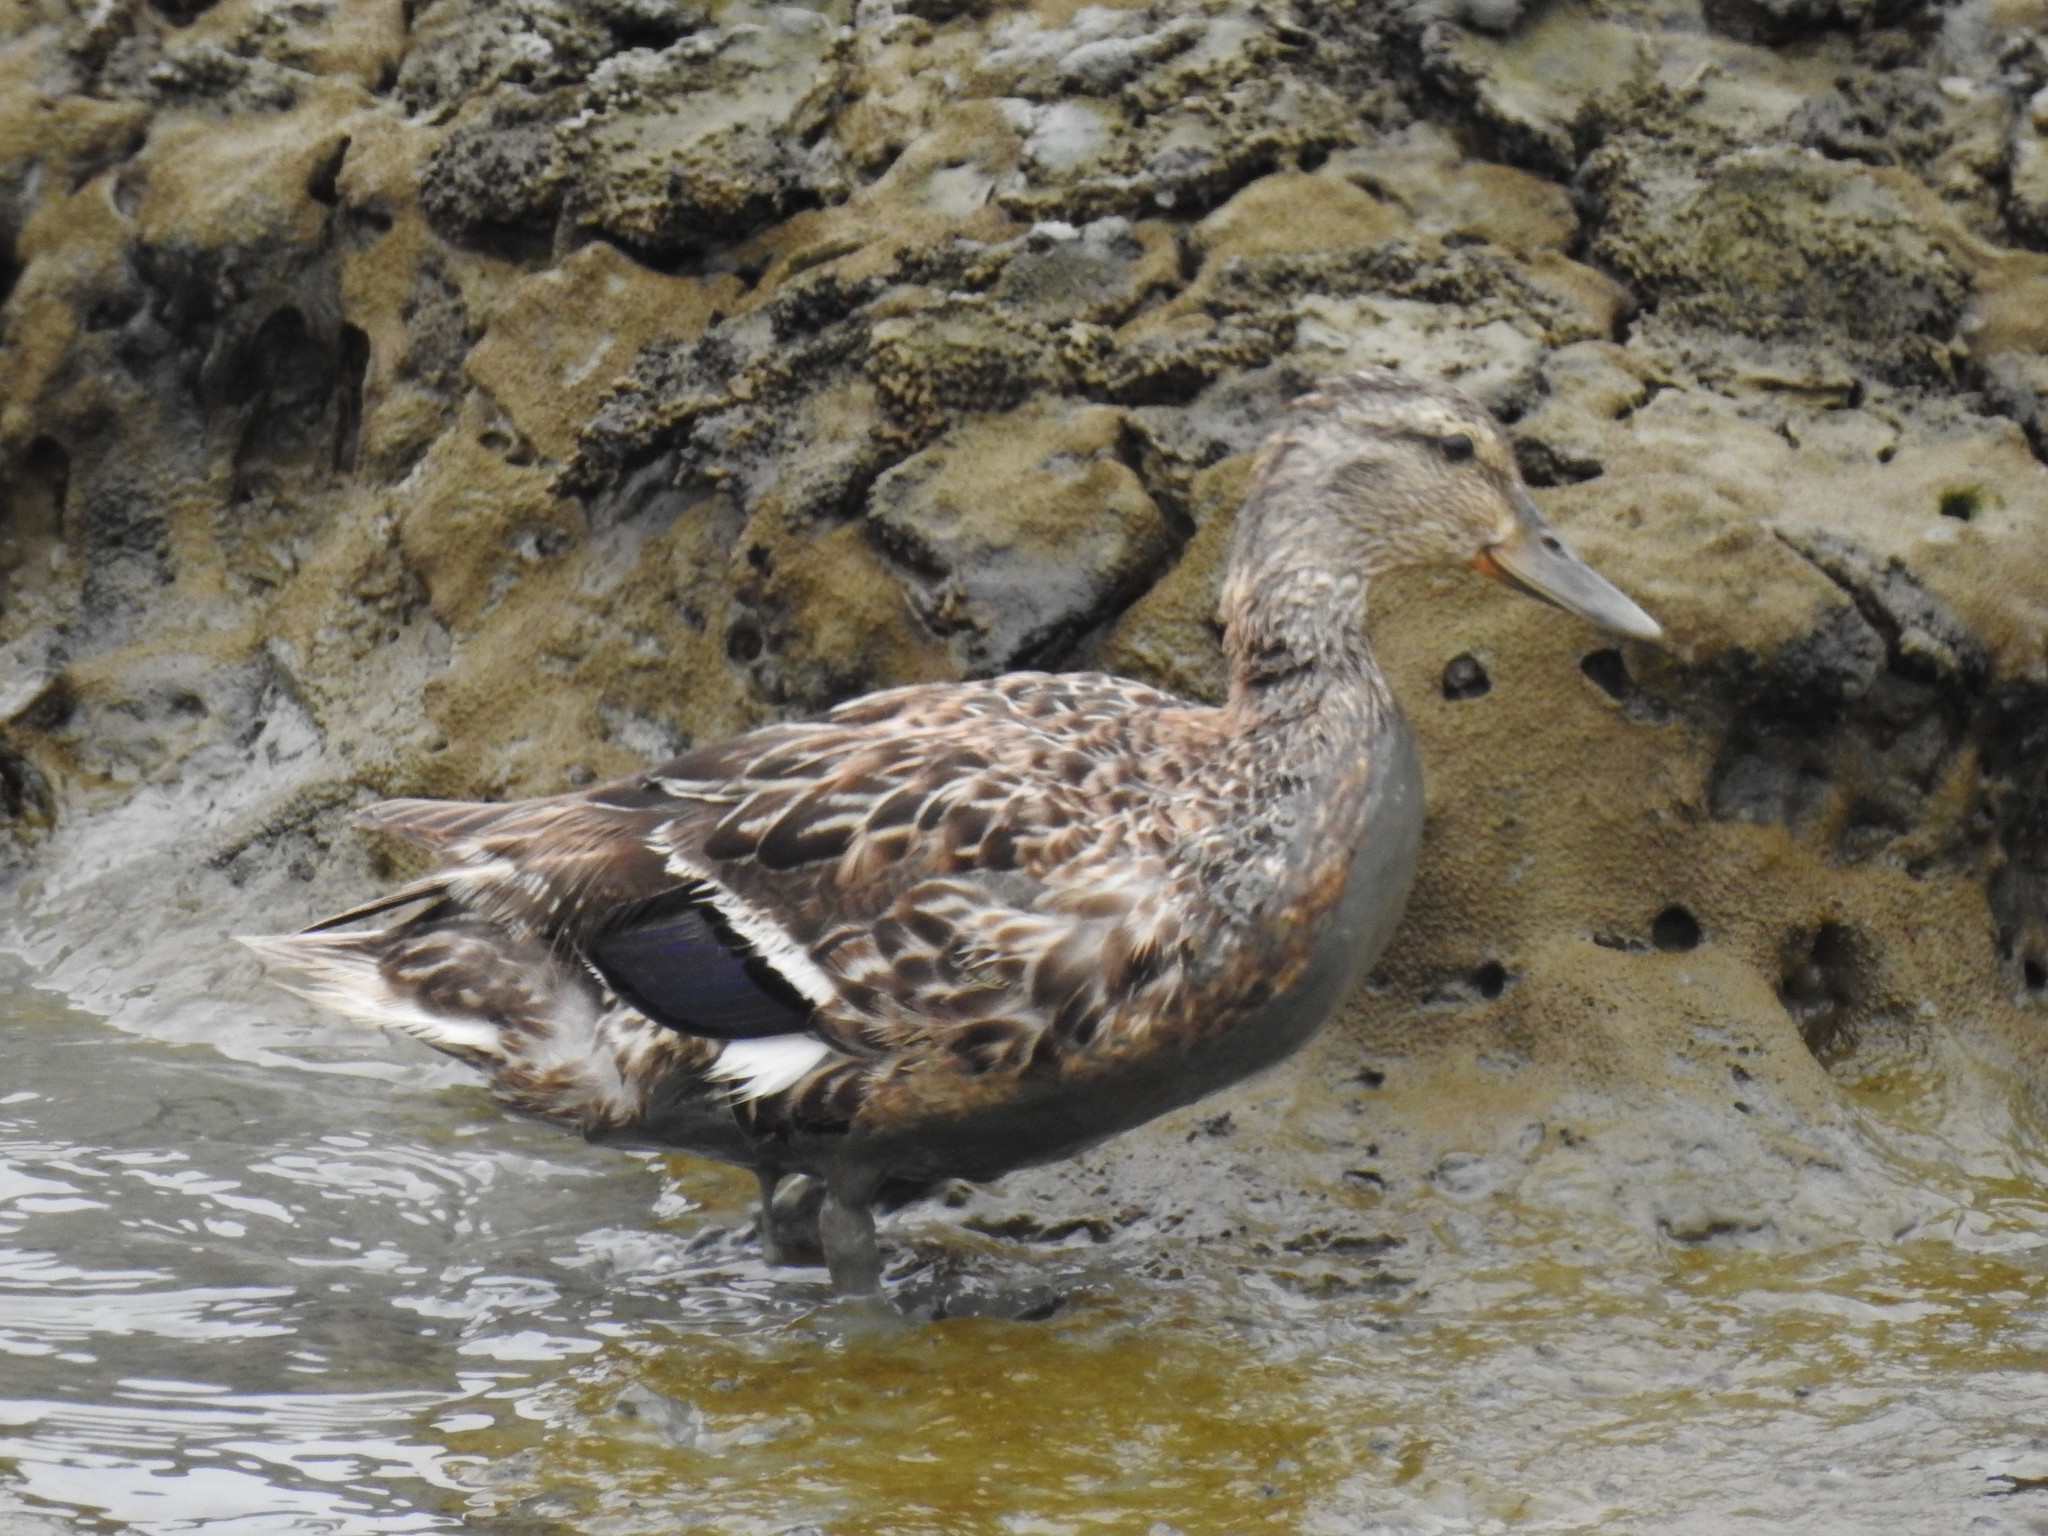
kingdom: Animalia
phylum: Chordata
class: Aves
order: Anseriformes
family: Anatidae
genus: Anas
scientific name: Anas platyrhynchos
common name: Mallard
